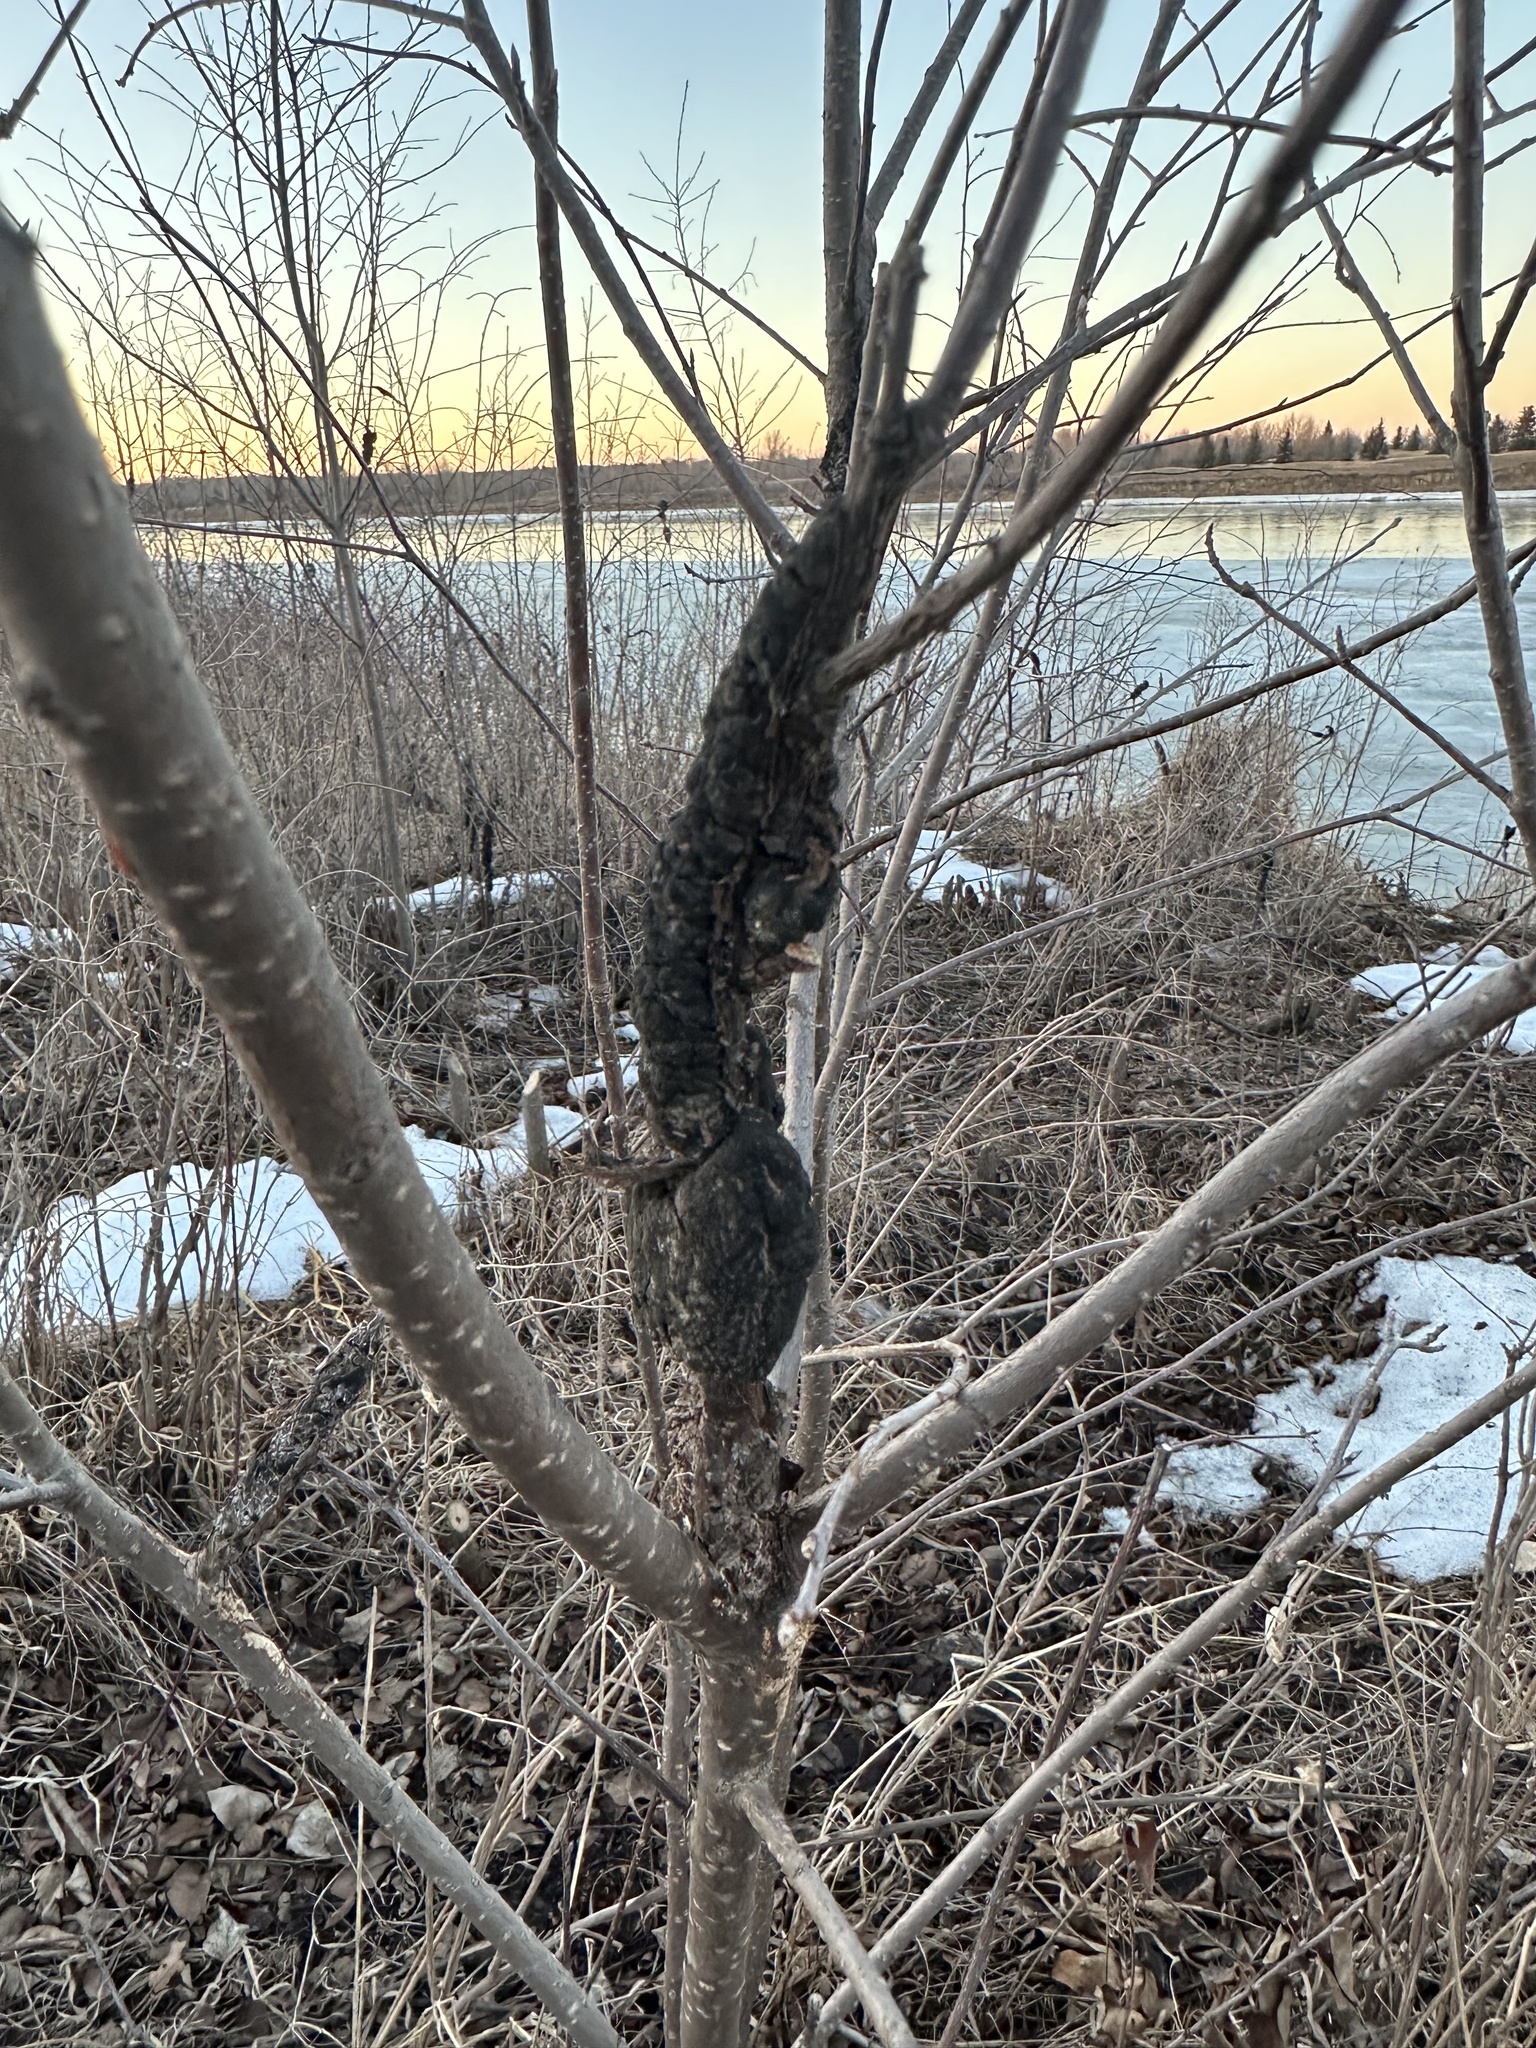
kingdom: Fungi
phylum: Ascomycota
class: Dothideomycetes
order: Venturiales
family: Venturiaceae
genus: Apiosporina
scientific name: Apiosporina morbosa
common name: Black knot
